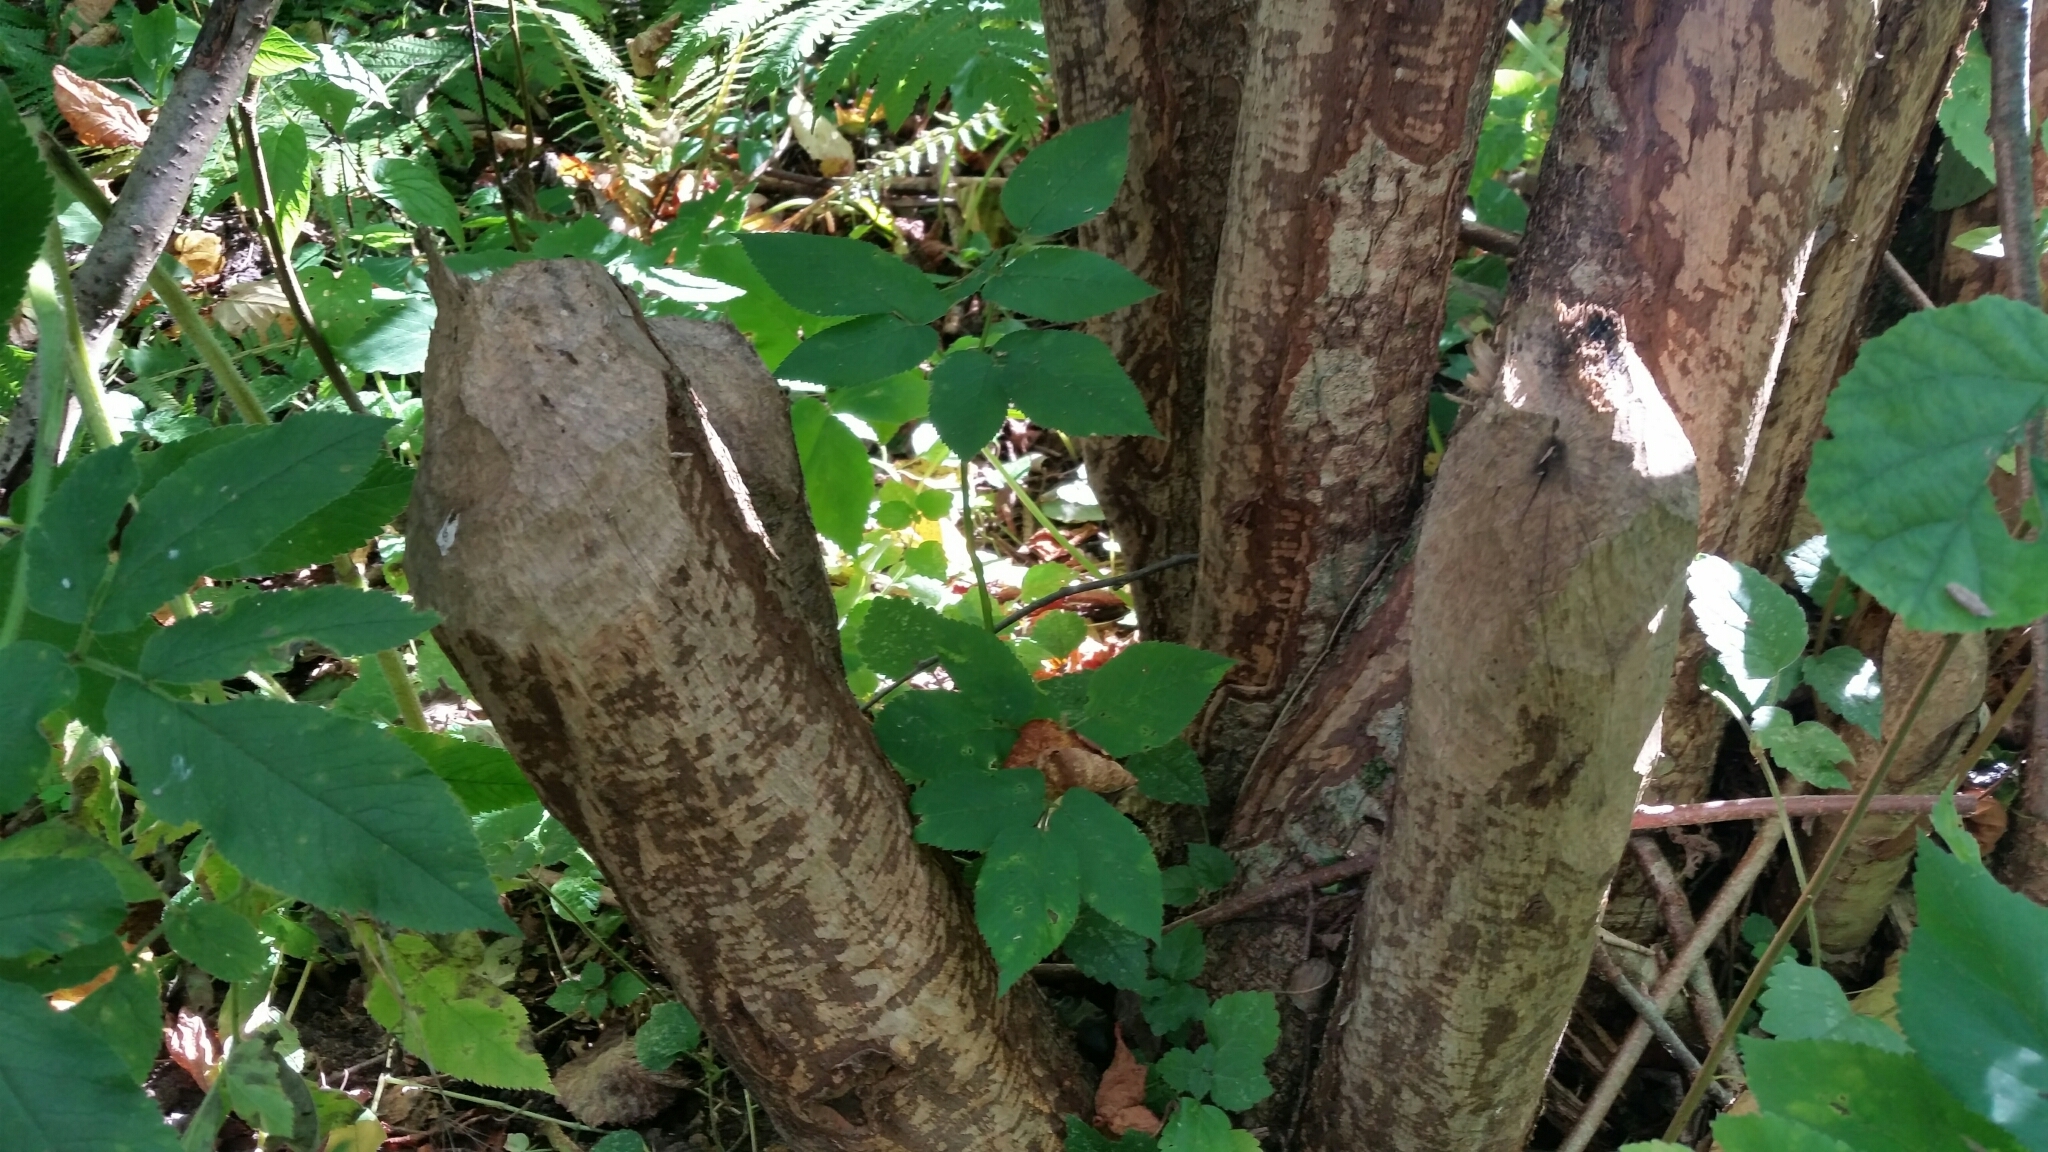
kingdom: Animalia
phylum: Chordata
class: Mammalia
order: Rodentia
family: Castoridae
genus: Castor
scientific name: Castor fiber
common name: Eurasian beaver
